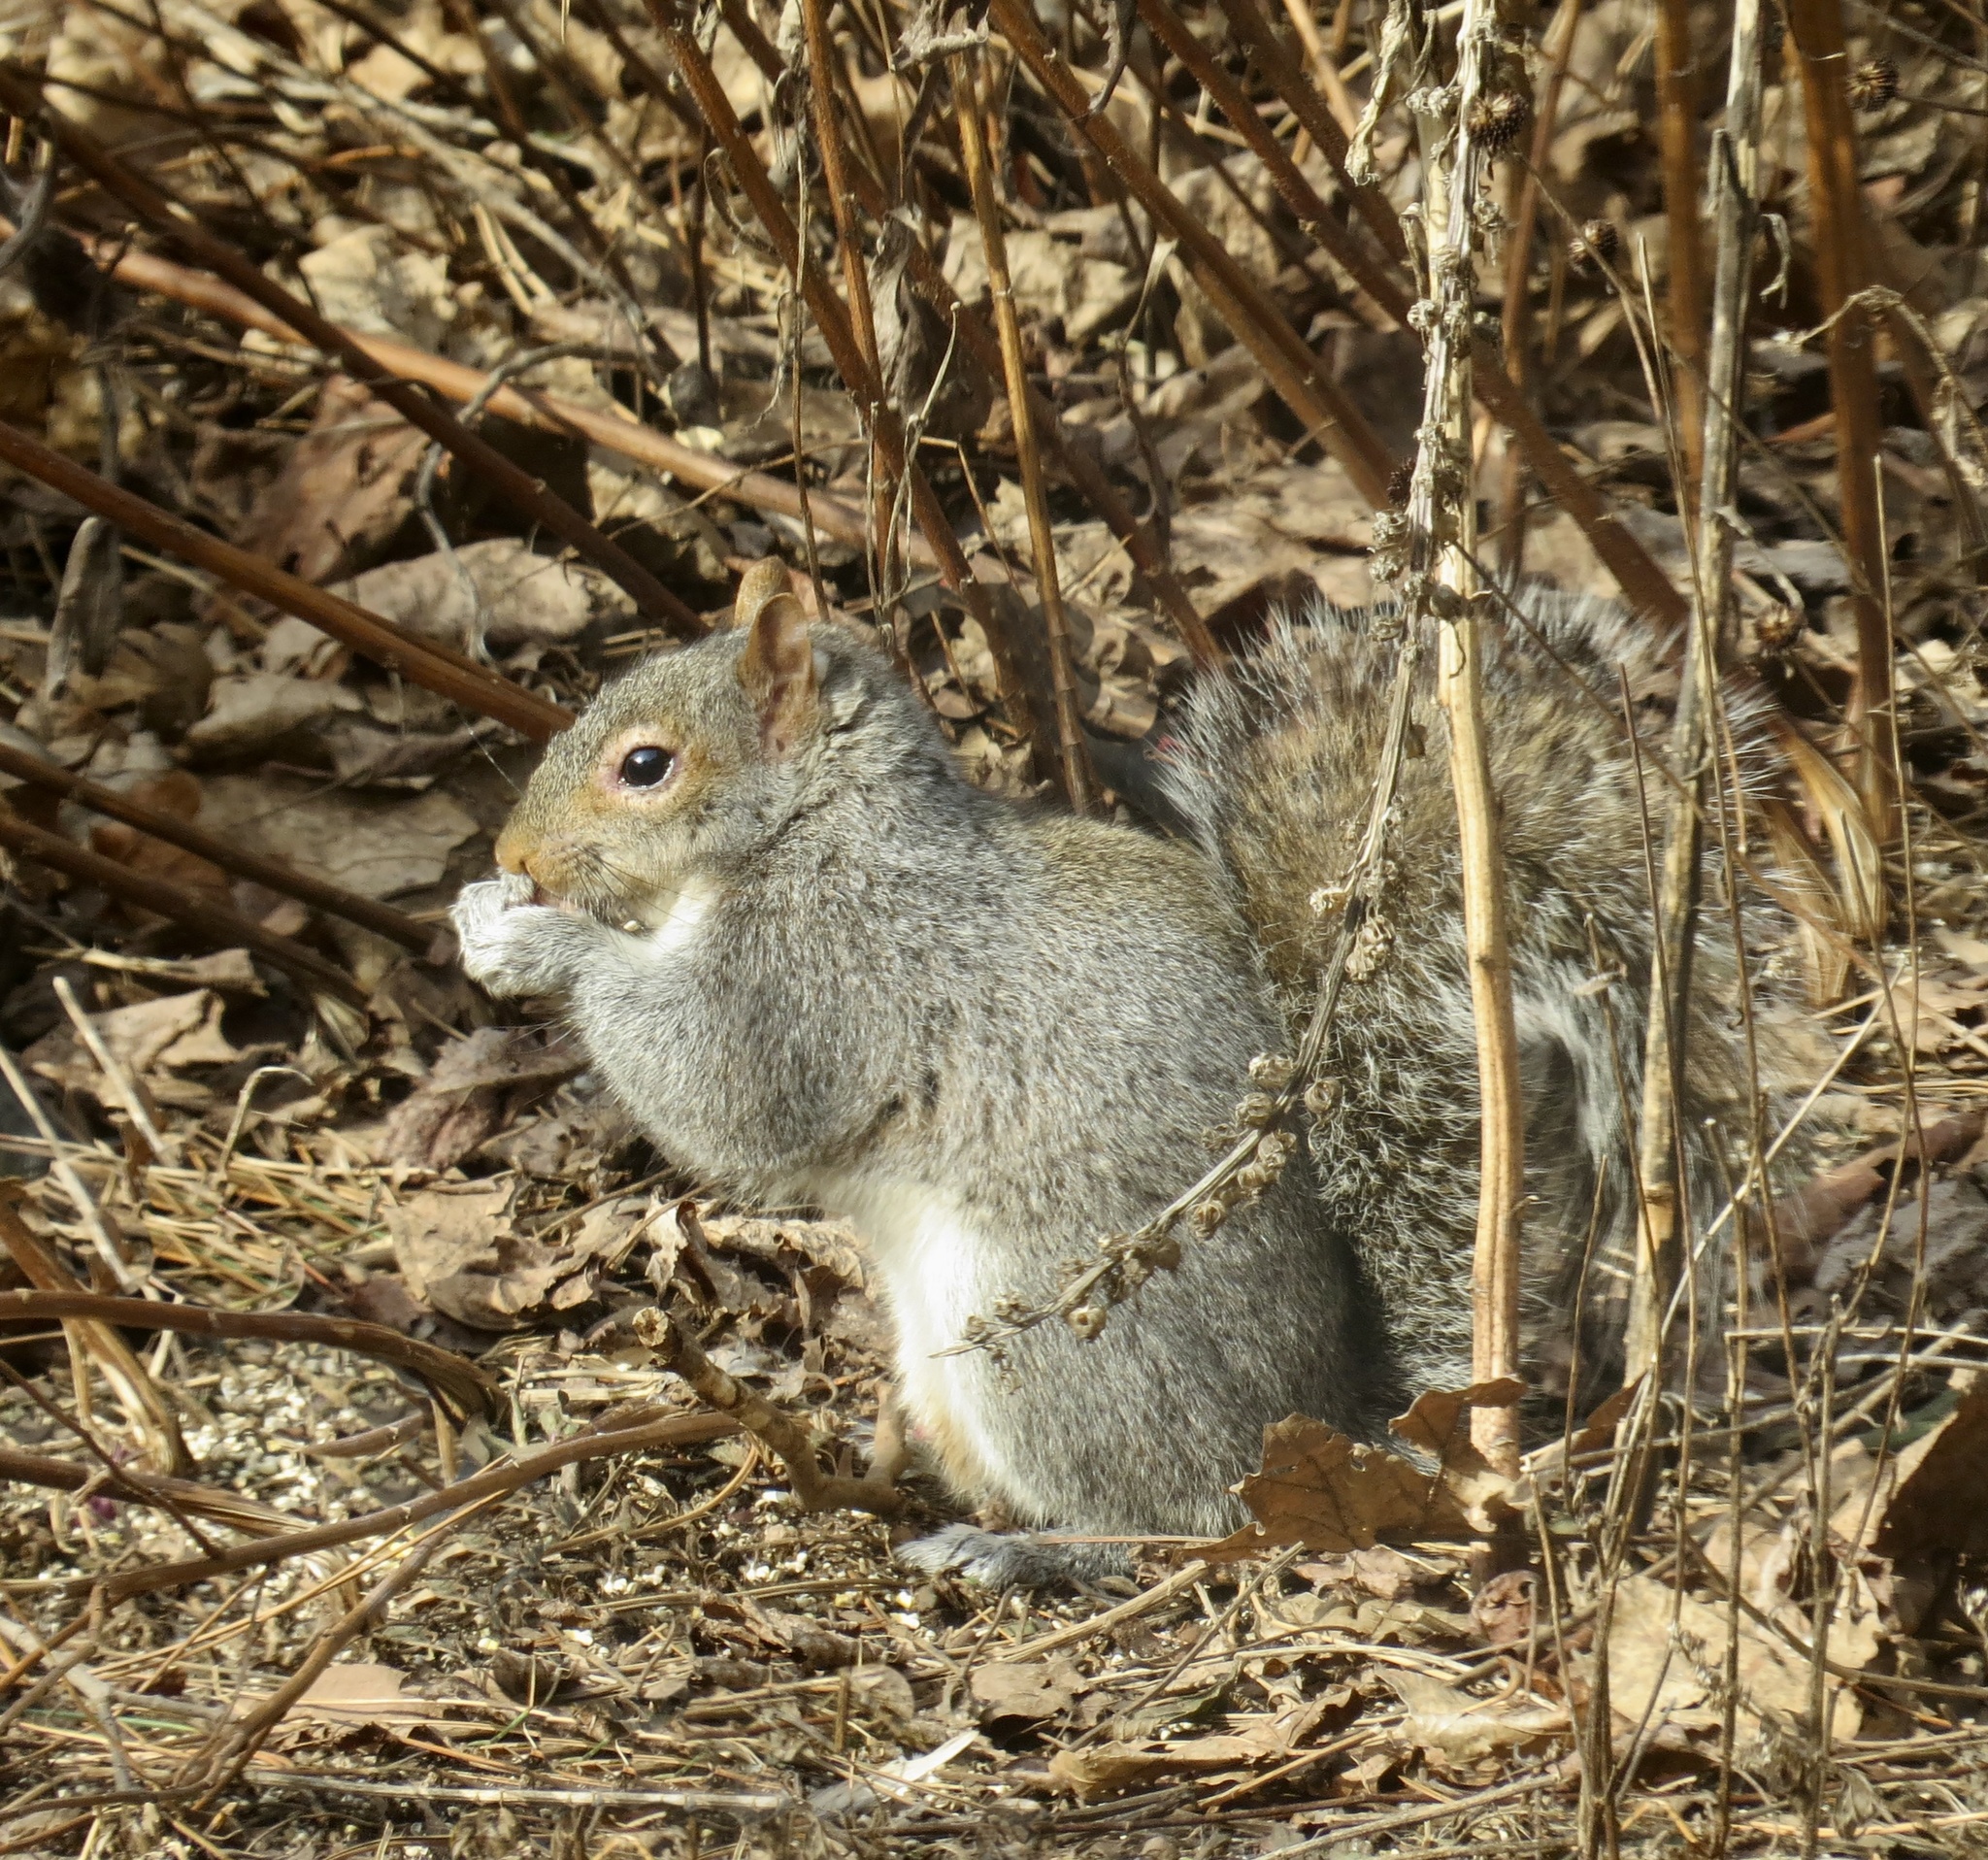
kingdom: Animalia
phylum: Chordata
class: Mammalia
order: Rodentia
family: Sciuridae
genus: Sciurus
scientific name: Sciurus carolinensis
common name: Eastern gray squirrel
